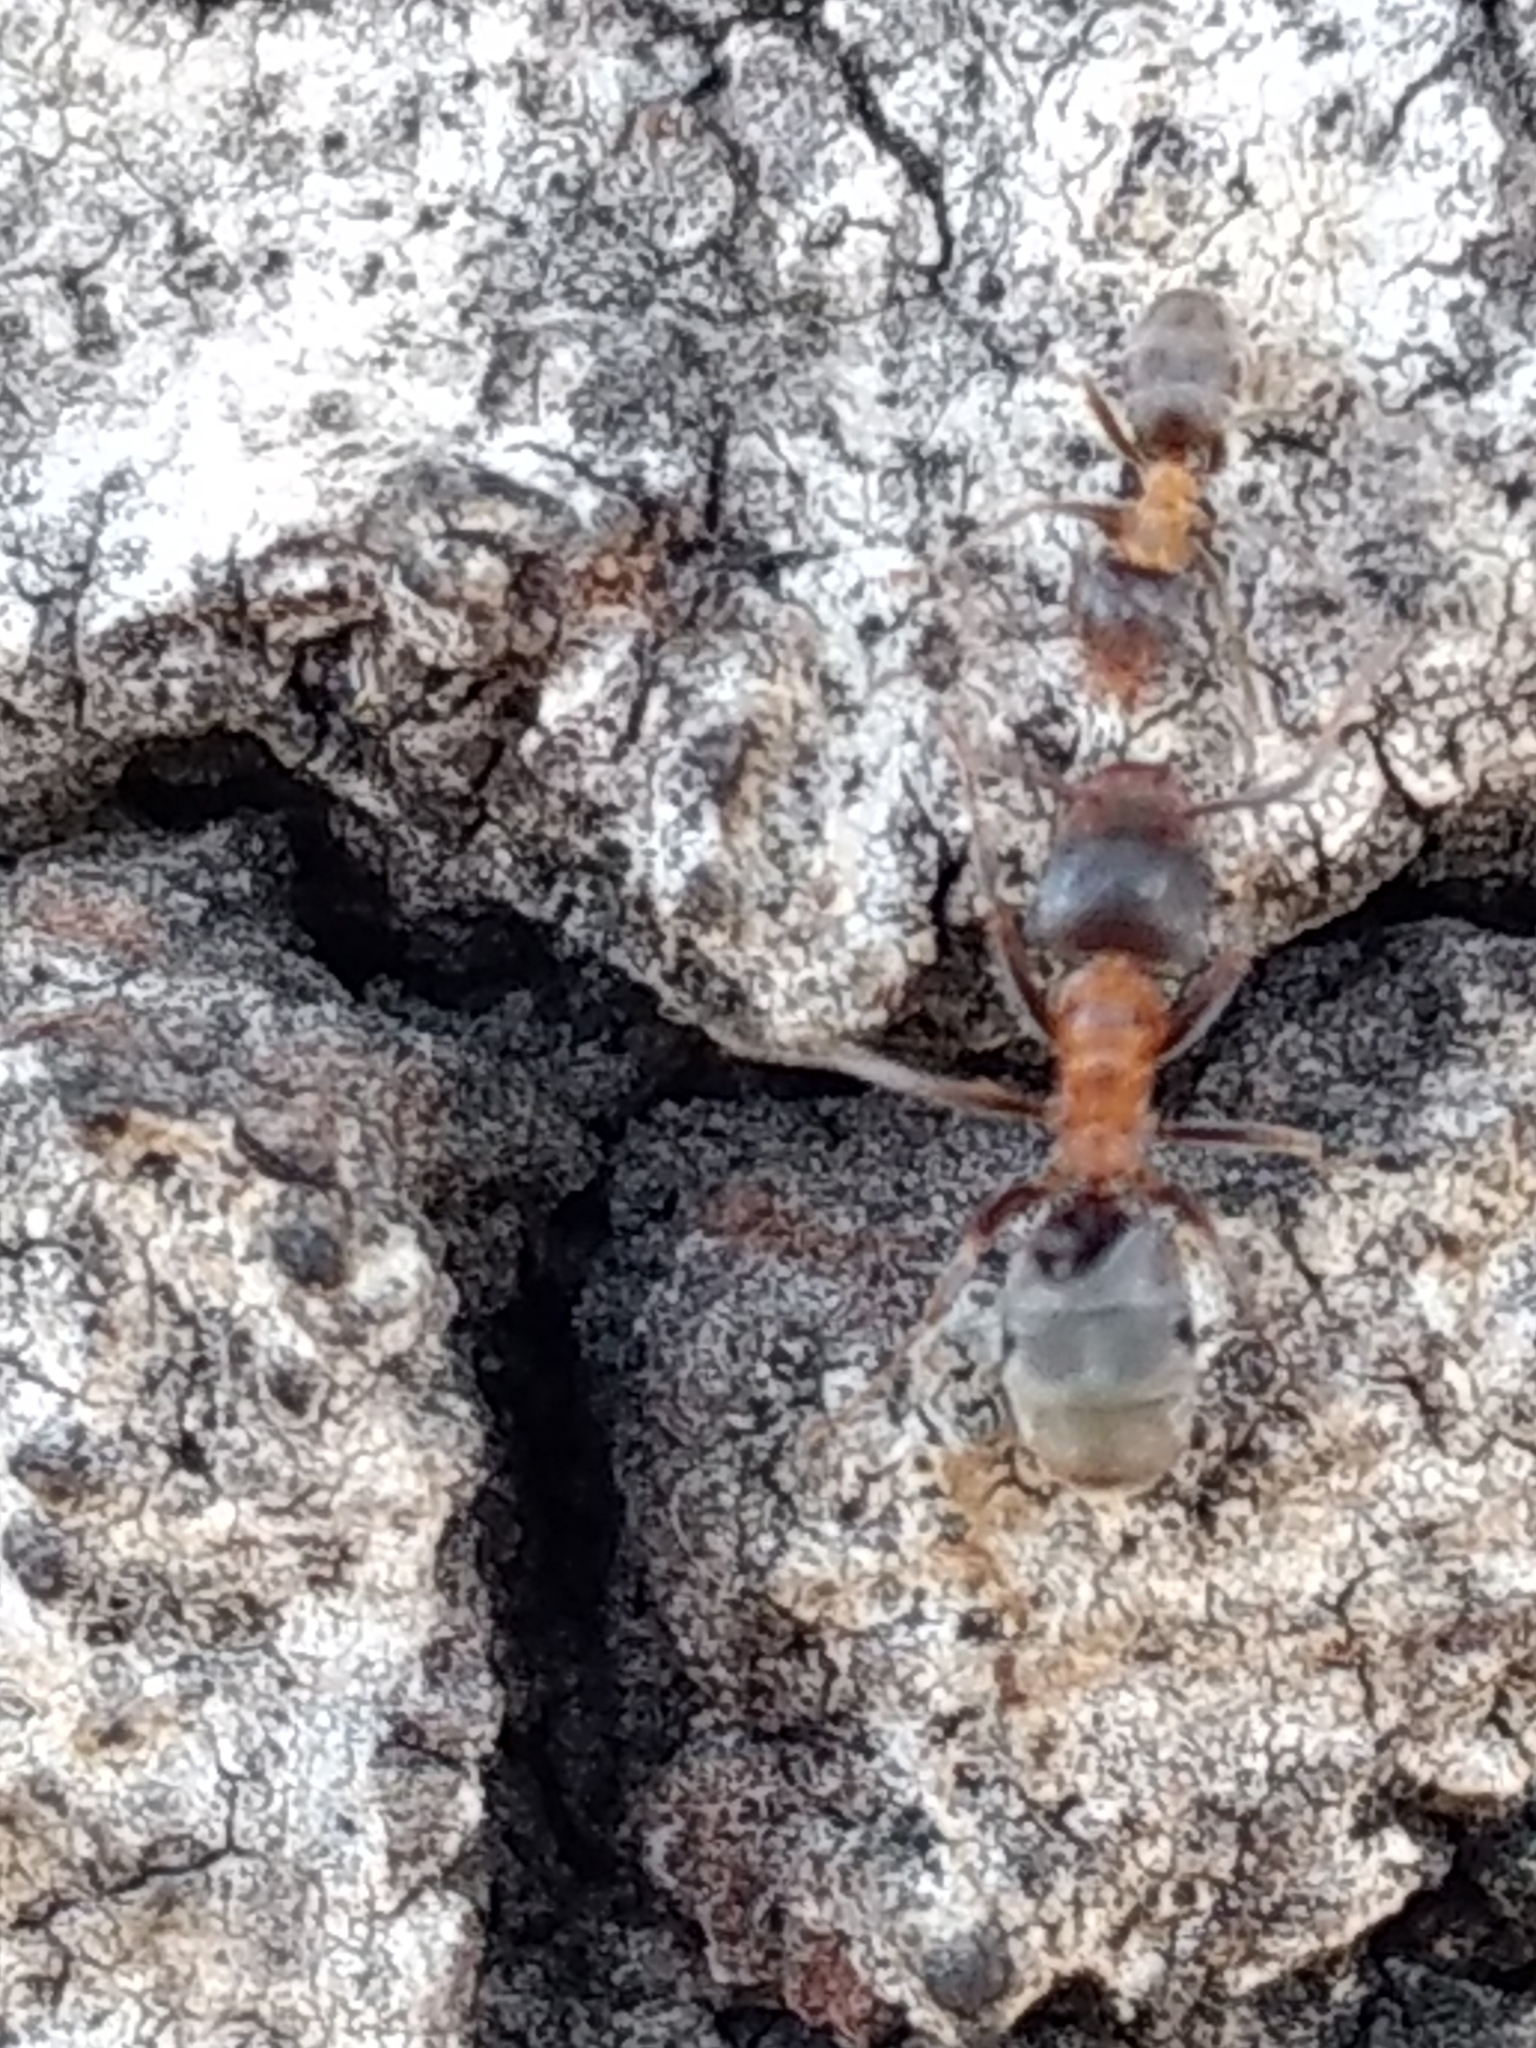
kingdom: Animalia
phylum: Arthropoda
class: Insecta
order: Hymenoptera
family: Formicidae
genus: Liometopum
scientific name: Liometopum occidentale
